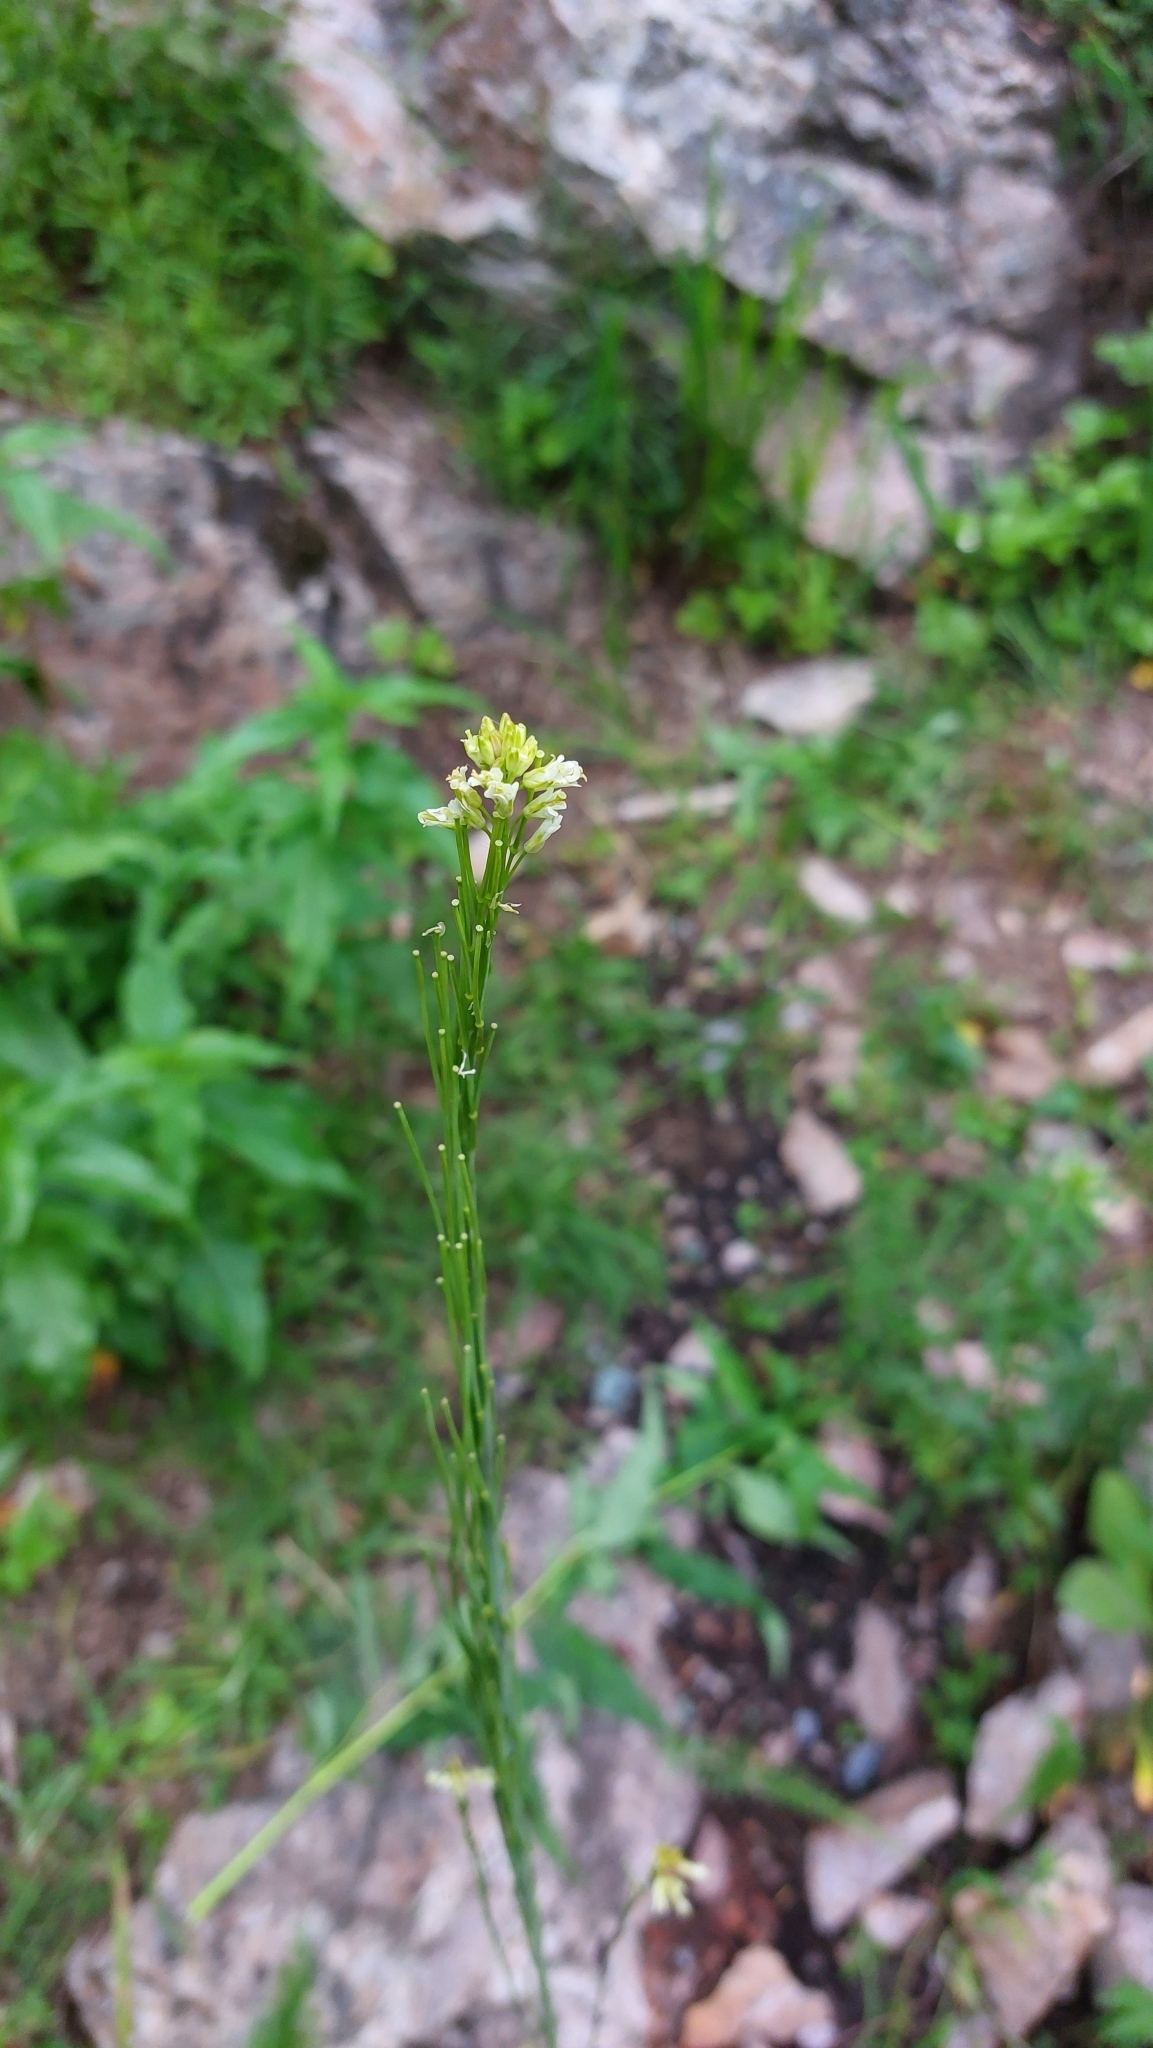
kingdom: Plantae
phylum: Tracheophyta
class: Magnoliopsida
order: Brassicales
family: Brassicaceae
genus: Turritis
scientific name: Turritis glabra
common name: Tower rockcress
